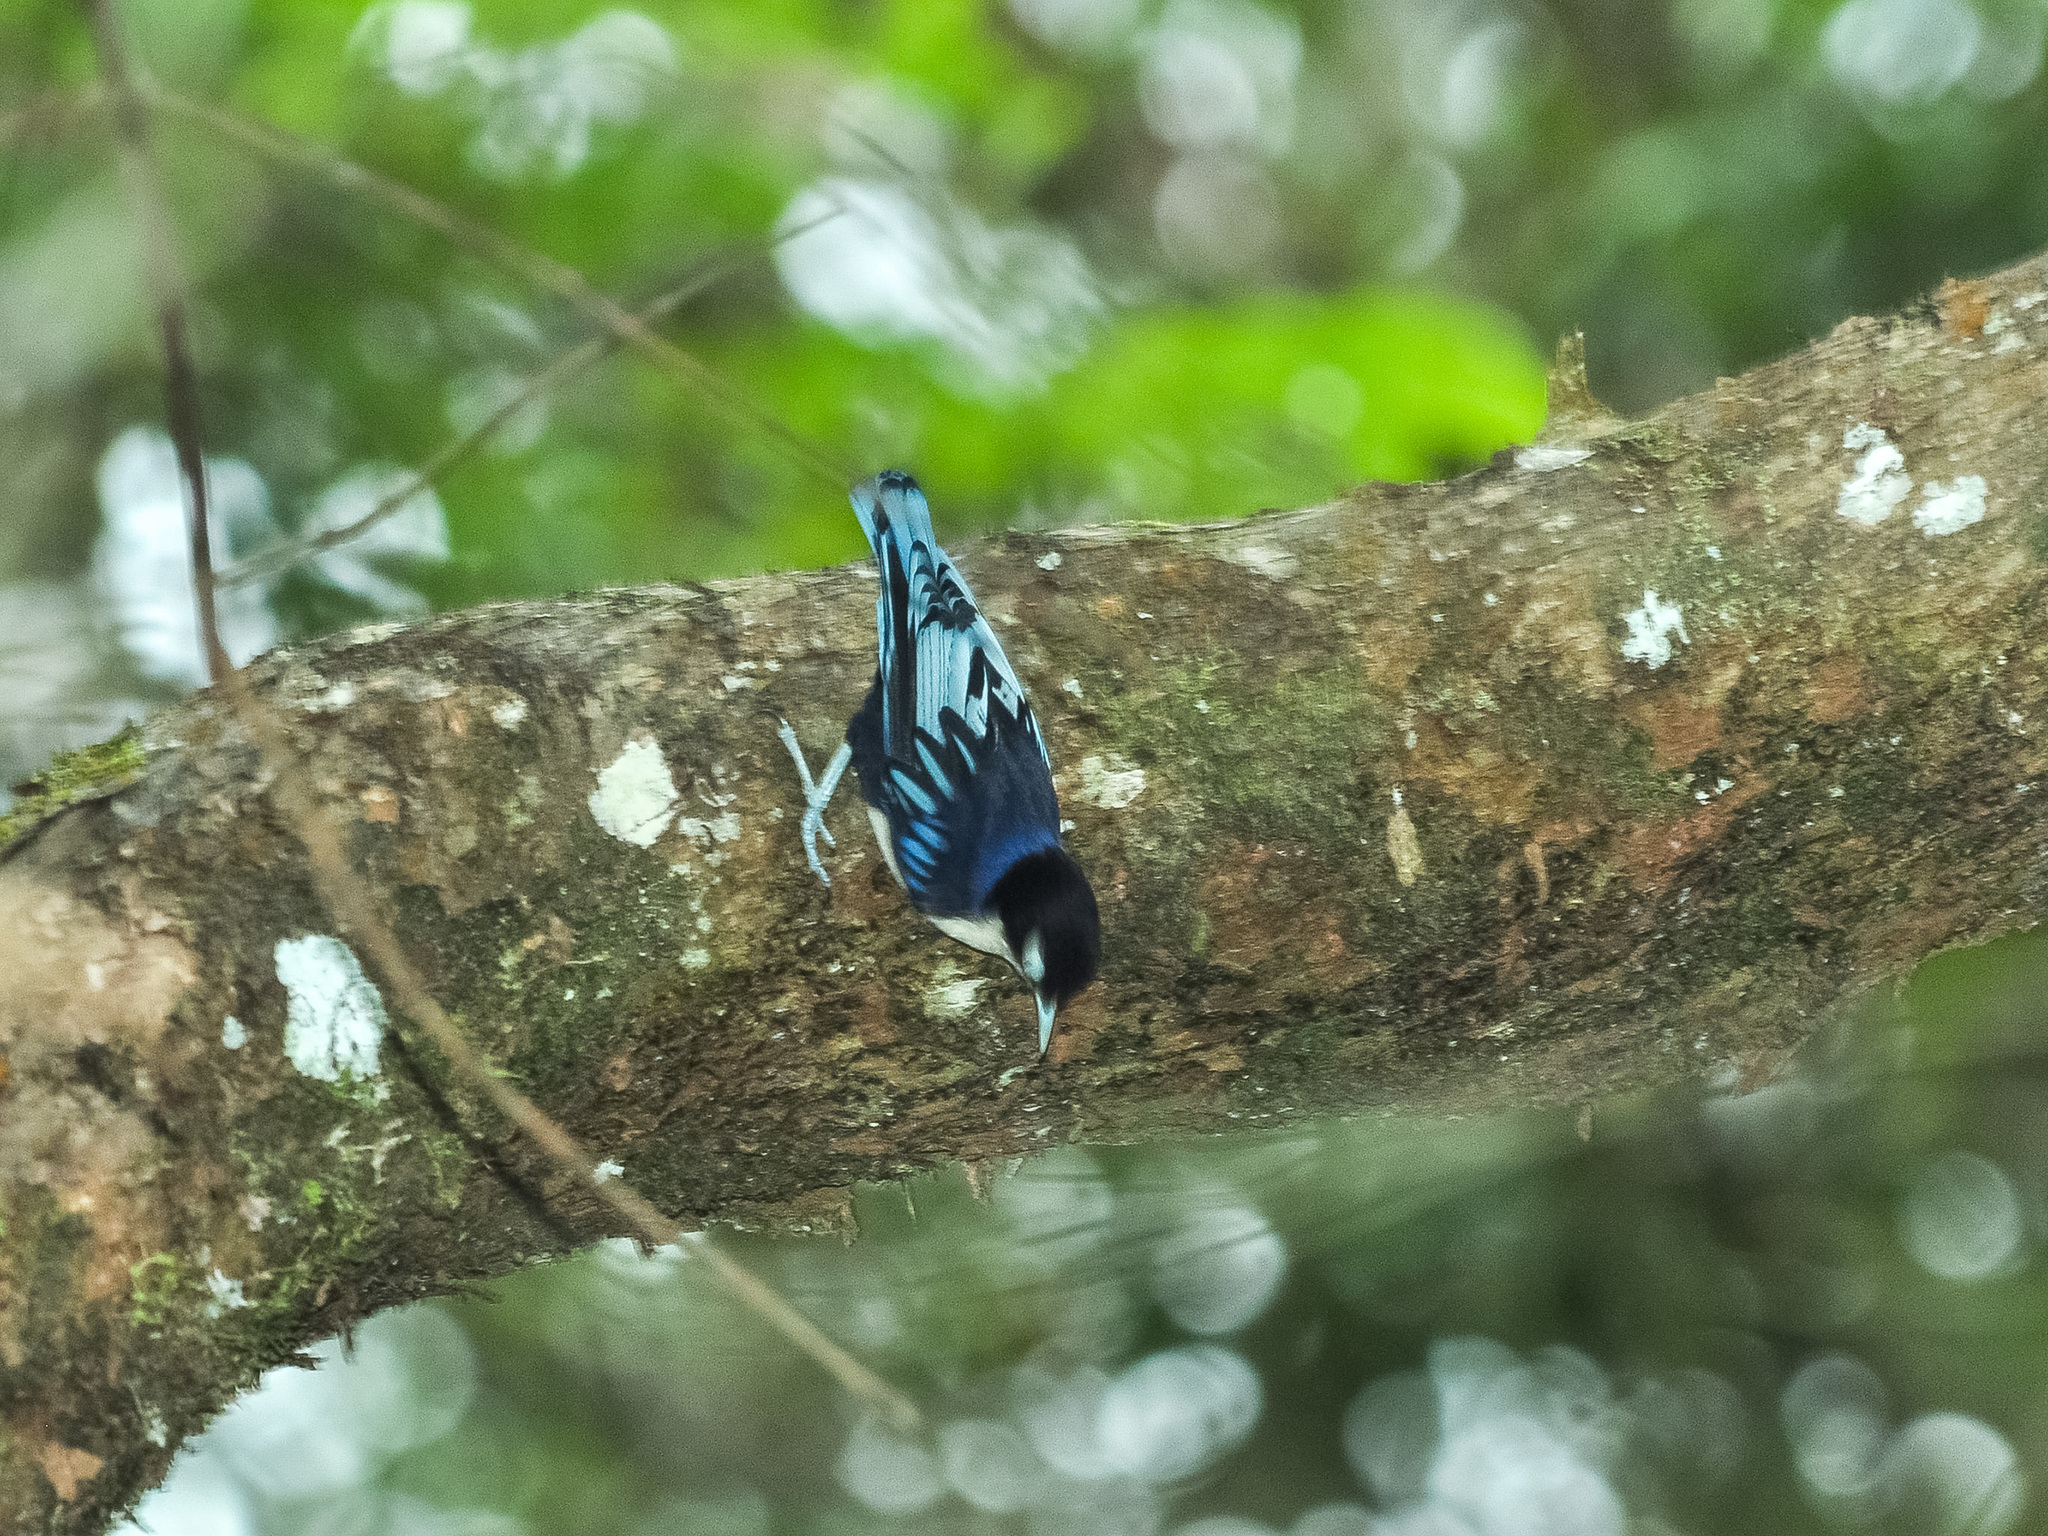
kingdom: Animalia
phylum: Chordata
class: Aves
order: Passeriformes
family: Sittidae
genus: Sitta
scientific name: Sitta azurea
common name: Blue nuthatch
